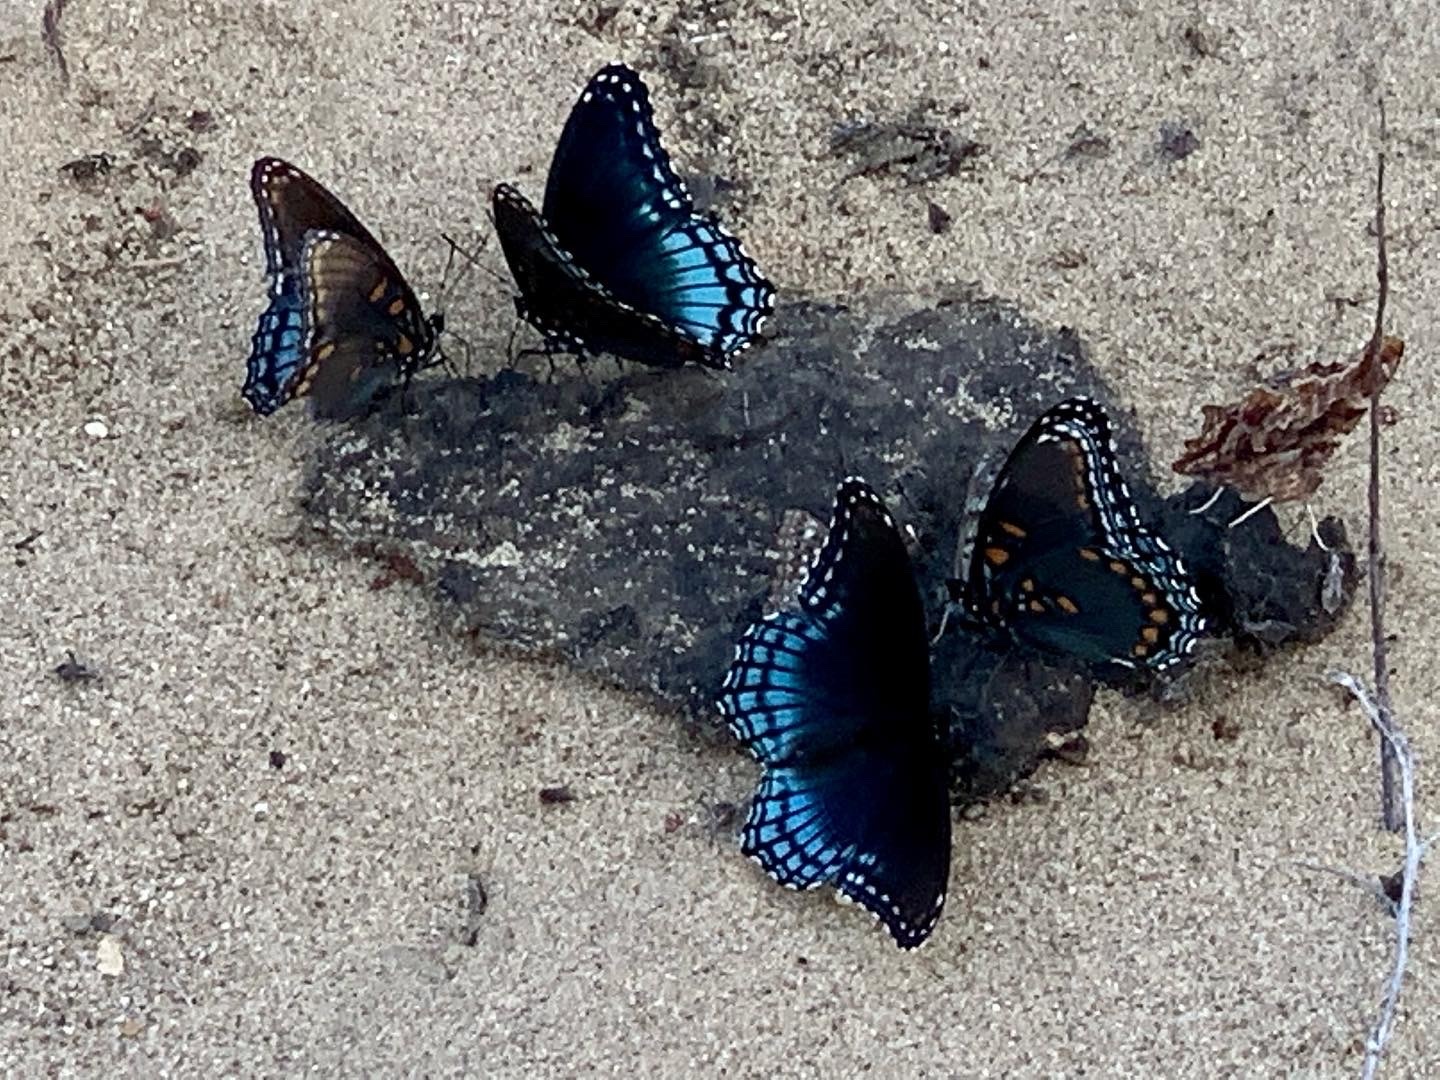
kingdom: Animalia
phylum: Arthropoda
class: Insecta
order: Lepidoptera
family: Nymphalidae
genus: Limenitis
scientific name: Limenitis astyanax
